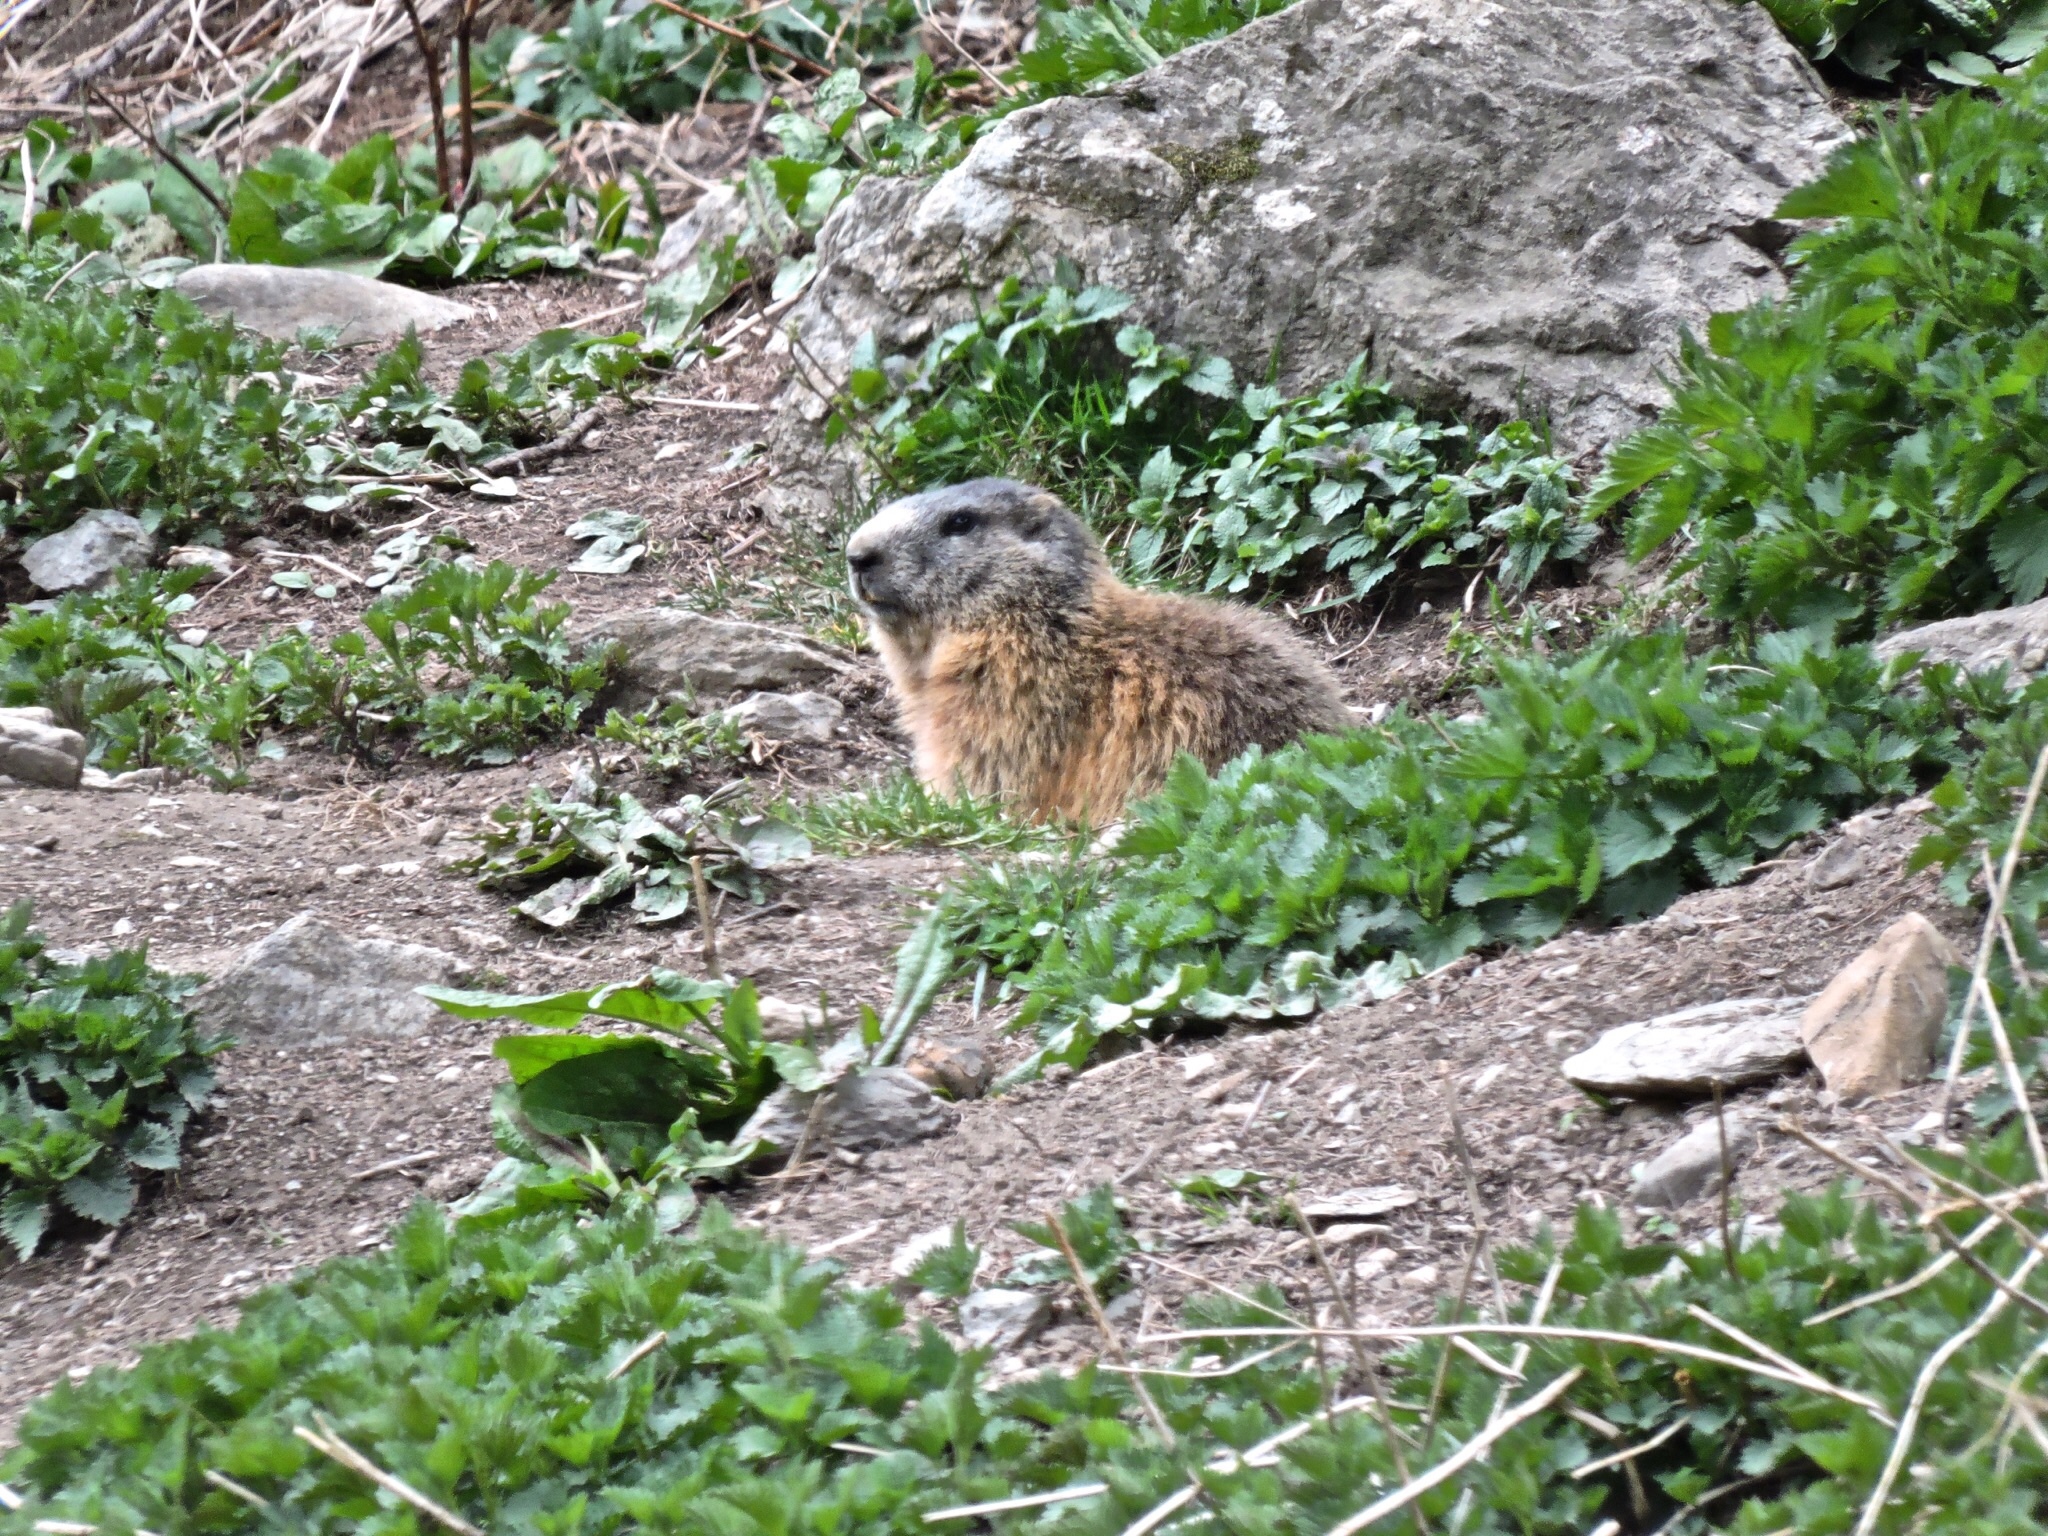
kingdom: Animalia
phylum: Chordata
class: Mammalia
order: Rodentia
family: Sciuridae
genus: Marmota
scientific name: Marmota marmota
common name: Alpine marmot
